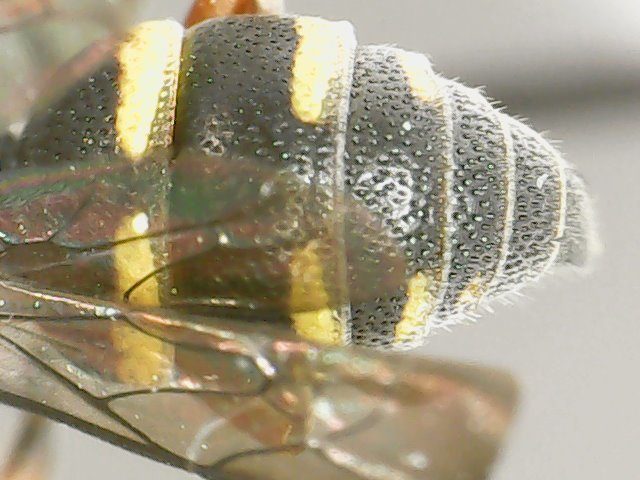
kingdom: Animalia
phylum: Arthropoda
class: Insecta
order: Hymenoptera
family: Crabronidae
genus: Epinysson
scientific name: Epinysson mellipes
